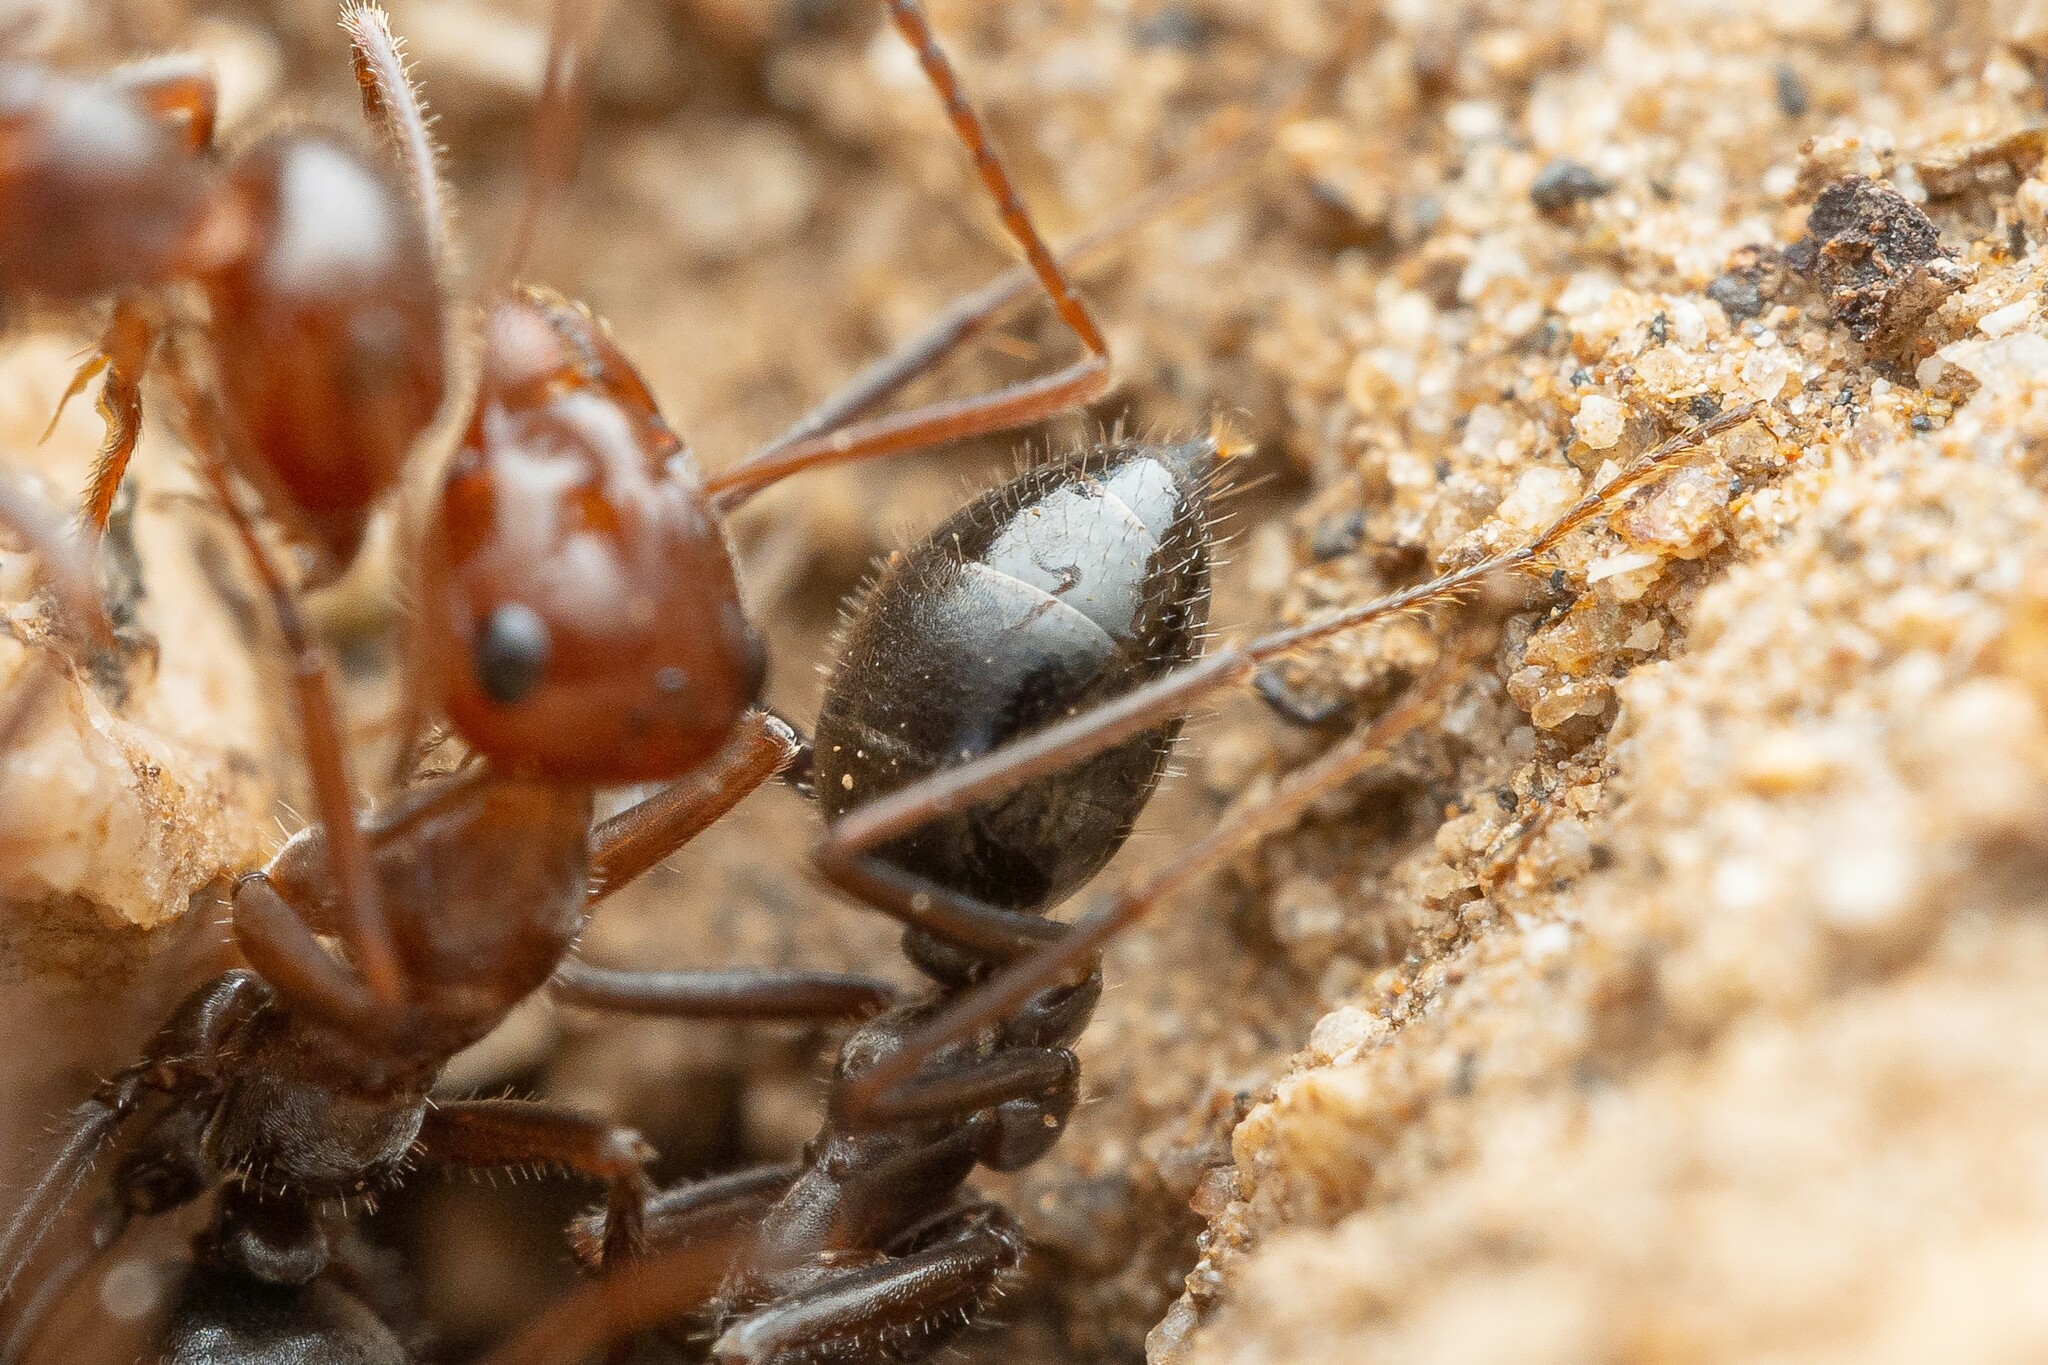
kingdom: Animalia
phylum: Arthropoda
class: Insecta
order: Hymenoptera
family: Formicidae
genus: Myrmecocystus
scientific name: Myrmecocystus mimicus
